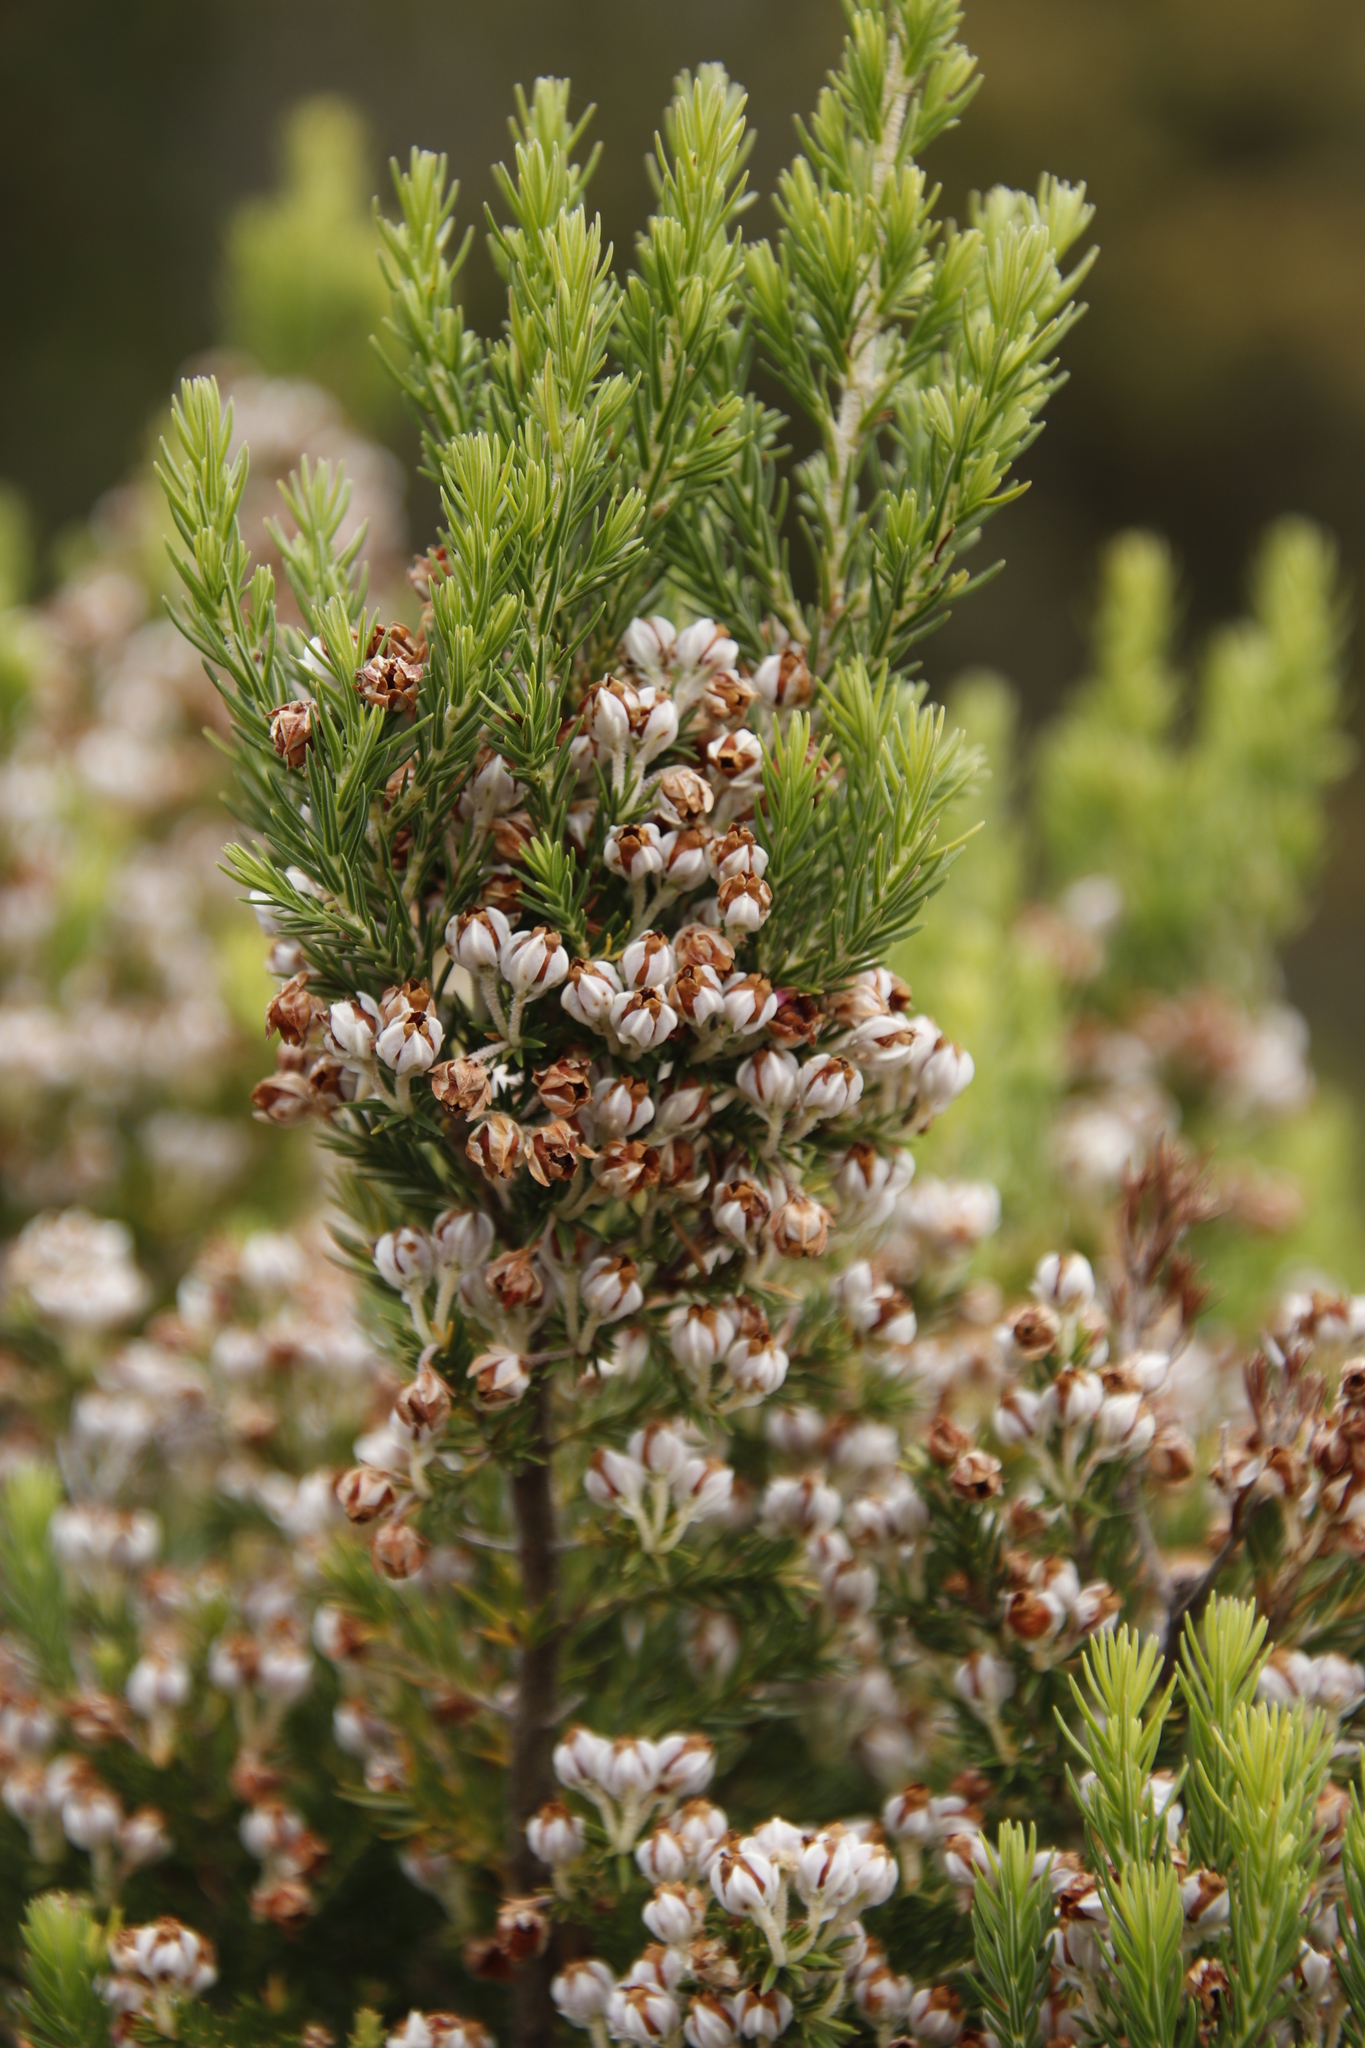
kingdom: Plantae
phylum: Tracheophyta
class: Magnoliopsida
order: Ericales
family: Ericaceae
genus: Erica
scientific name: Erica triflora
